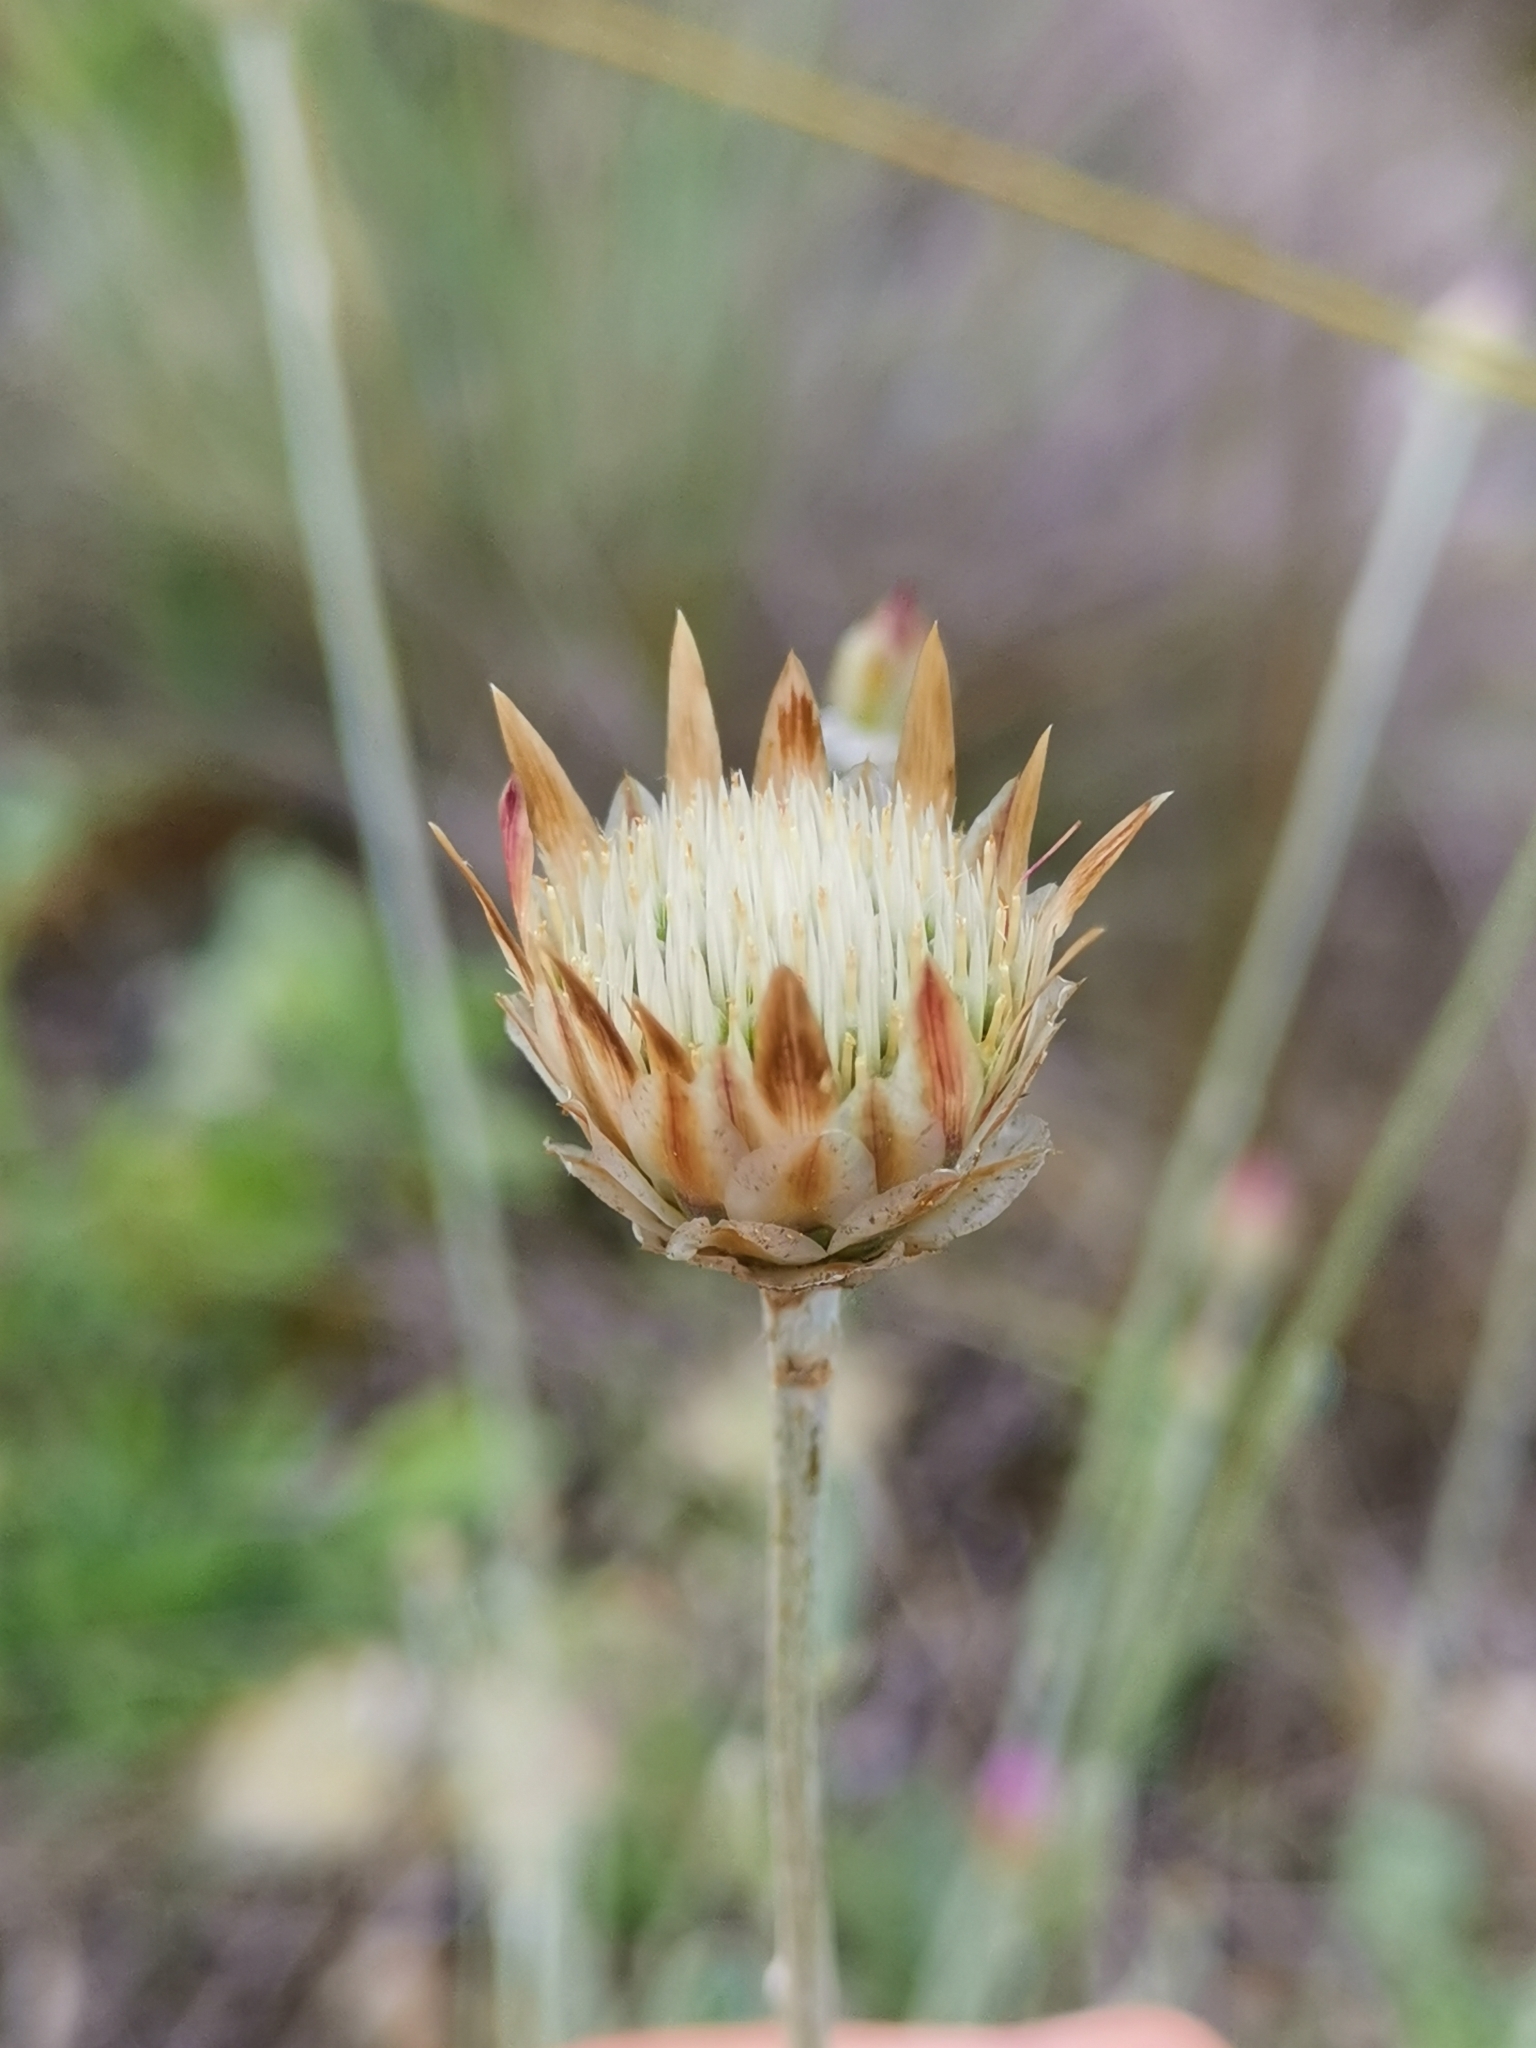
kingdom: Plantae
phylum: Tracheophyta
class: Magnoliopsida
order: Asterales
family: Asteraceae
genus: Xeranthemum
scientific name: Xeranthemum inapertum
